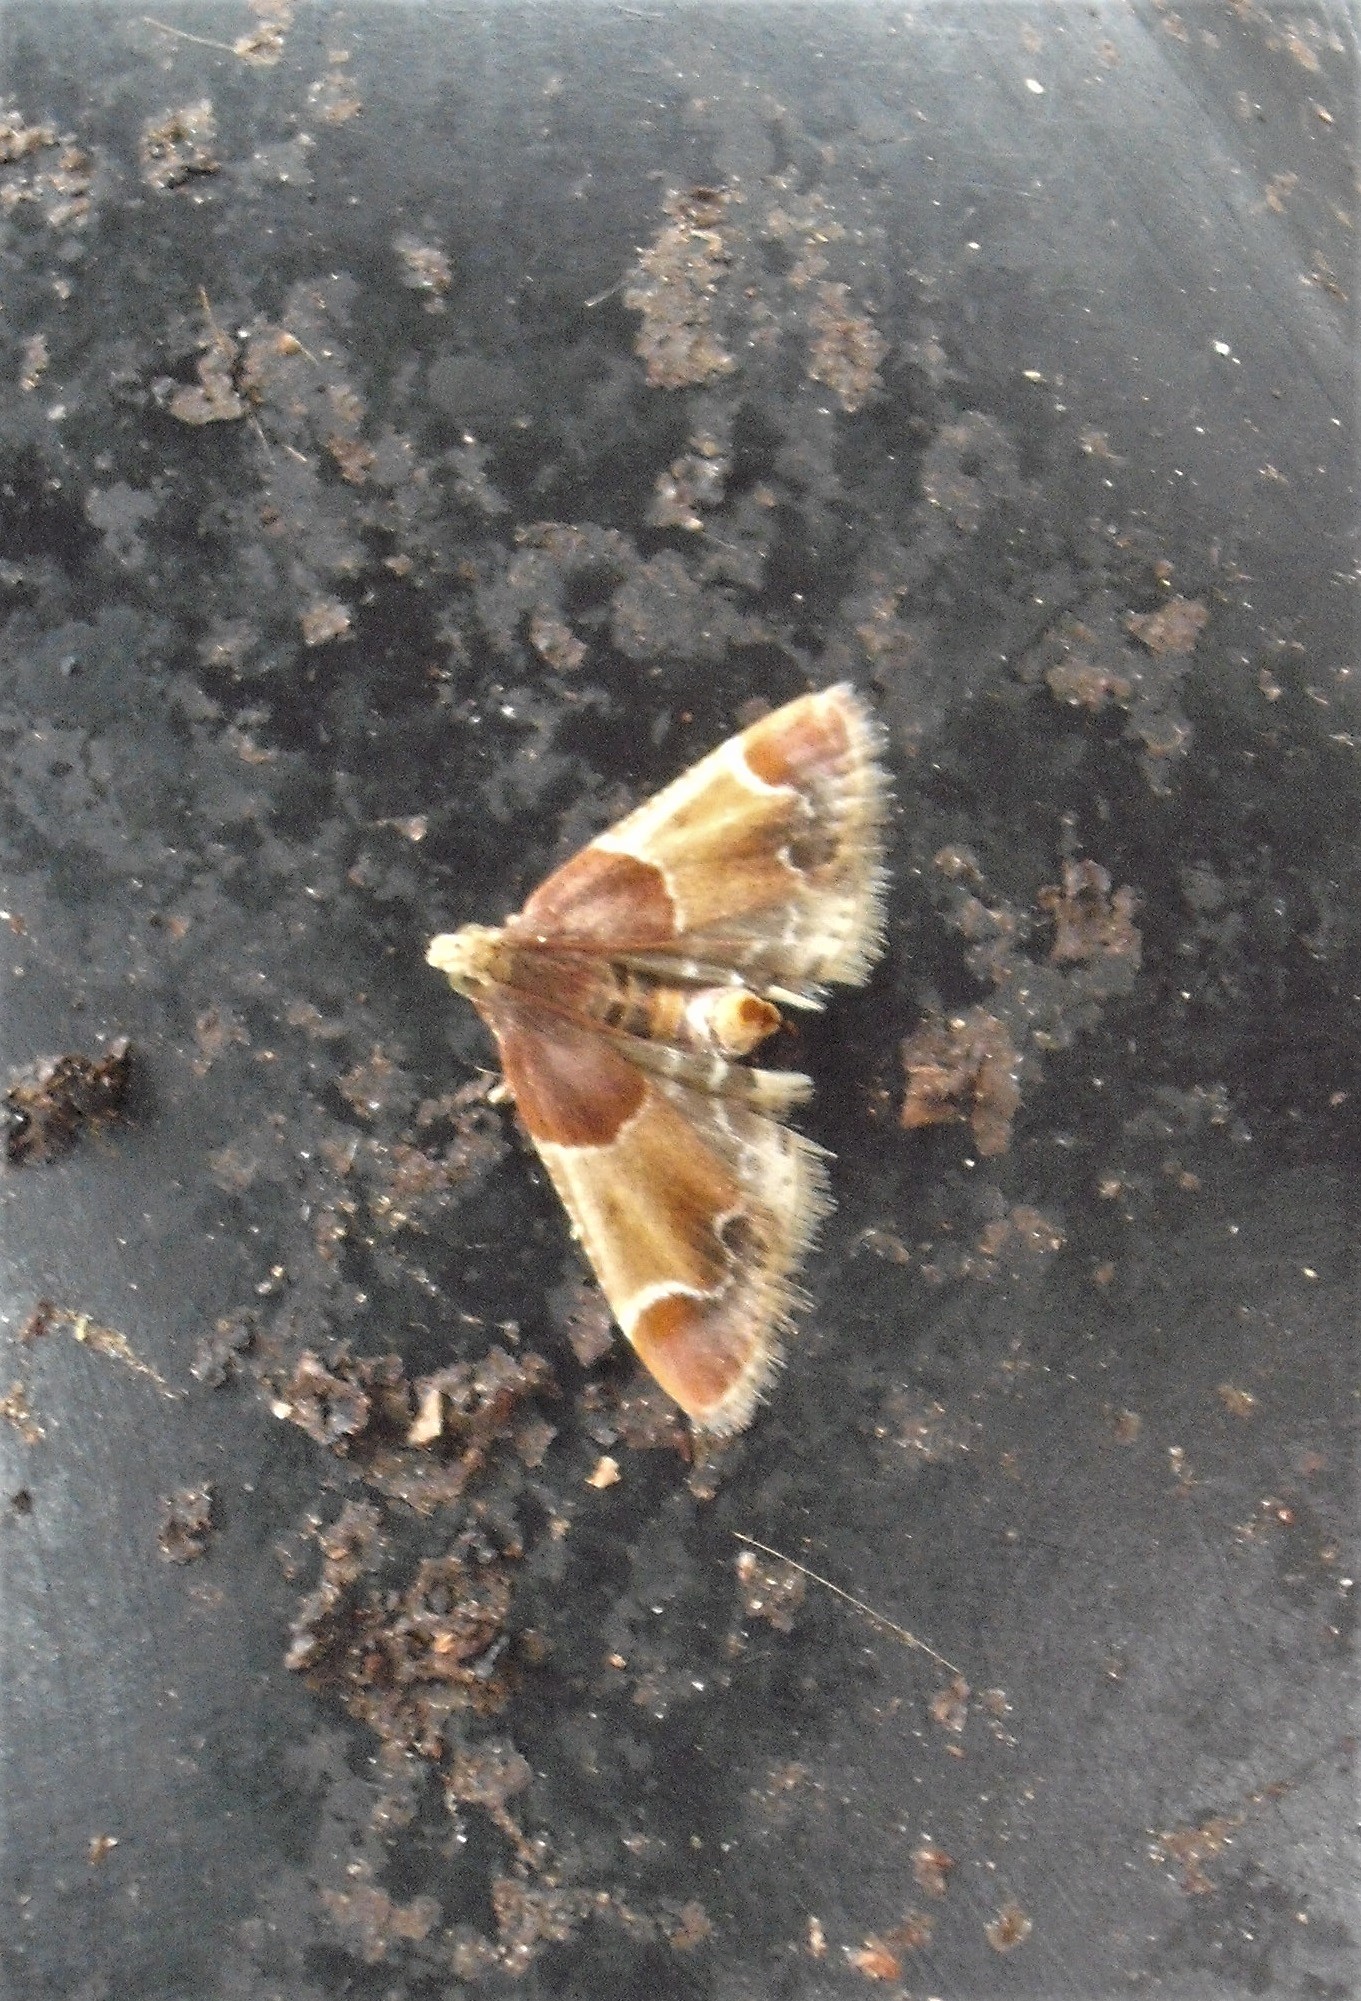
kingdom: Animalia
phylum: Arthropoda
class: Insecta
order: Lepidoptera
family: Pyralidae
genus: Pyralis
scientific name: Pyralis farinalis
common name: Meal moth
